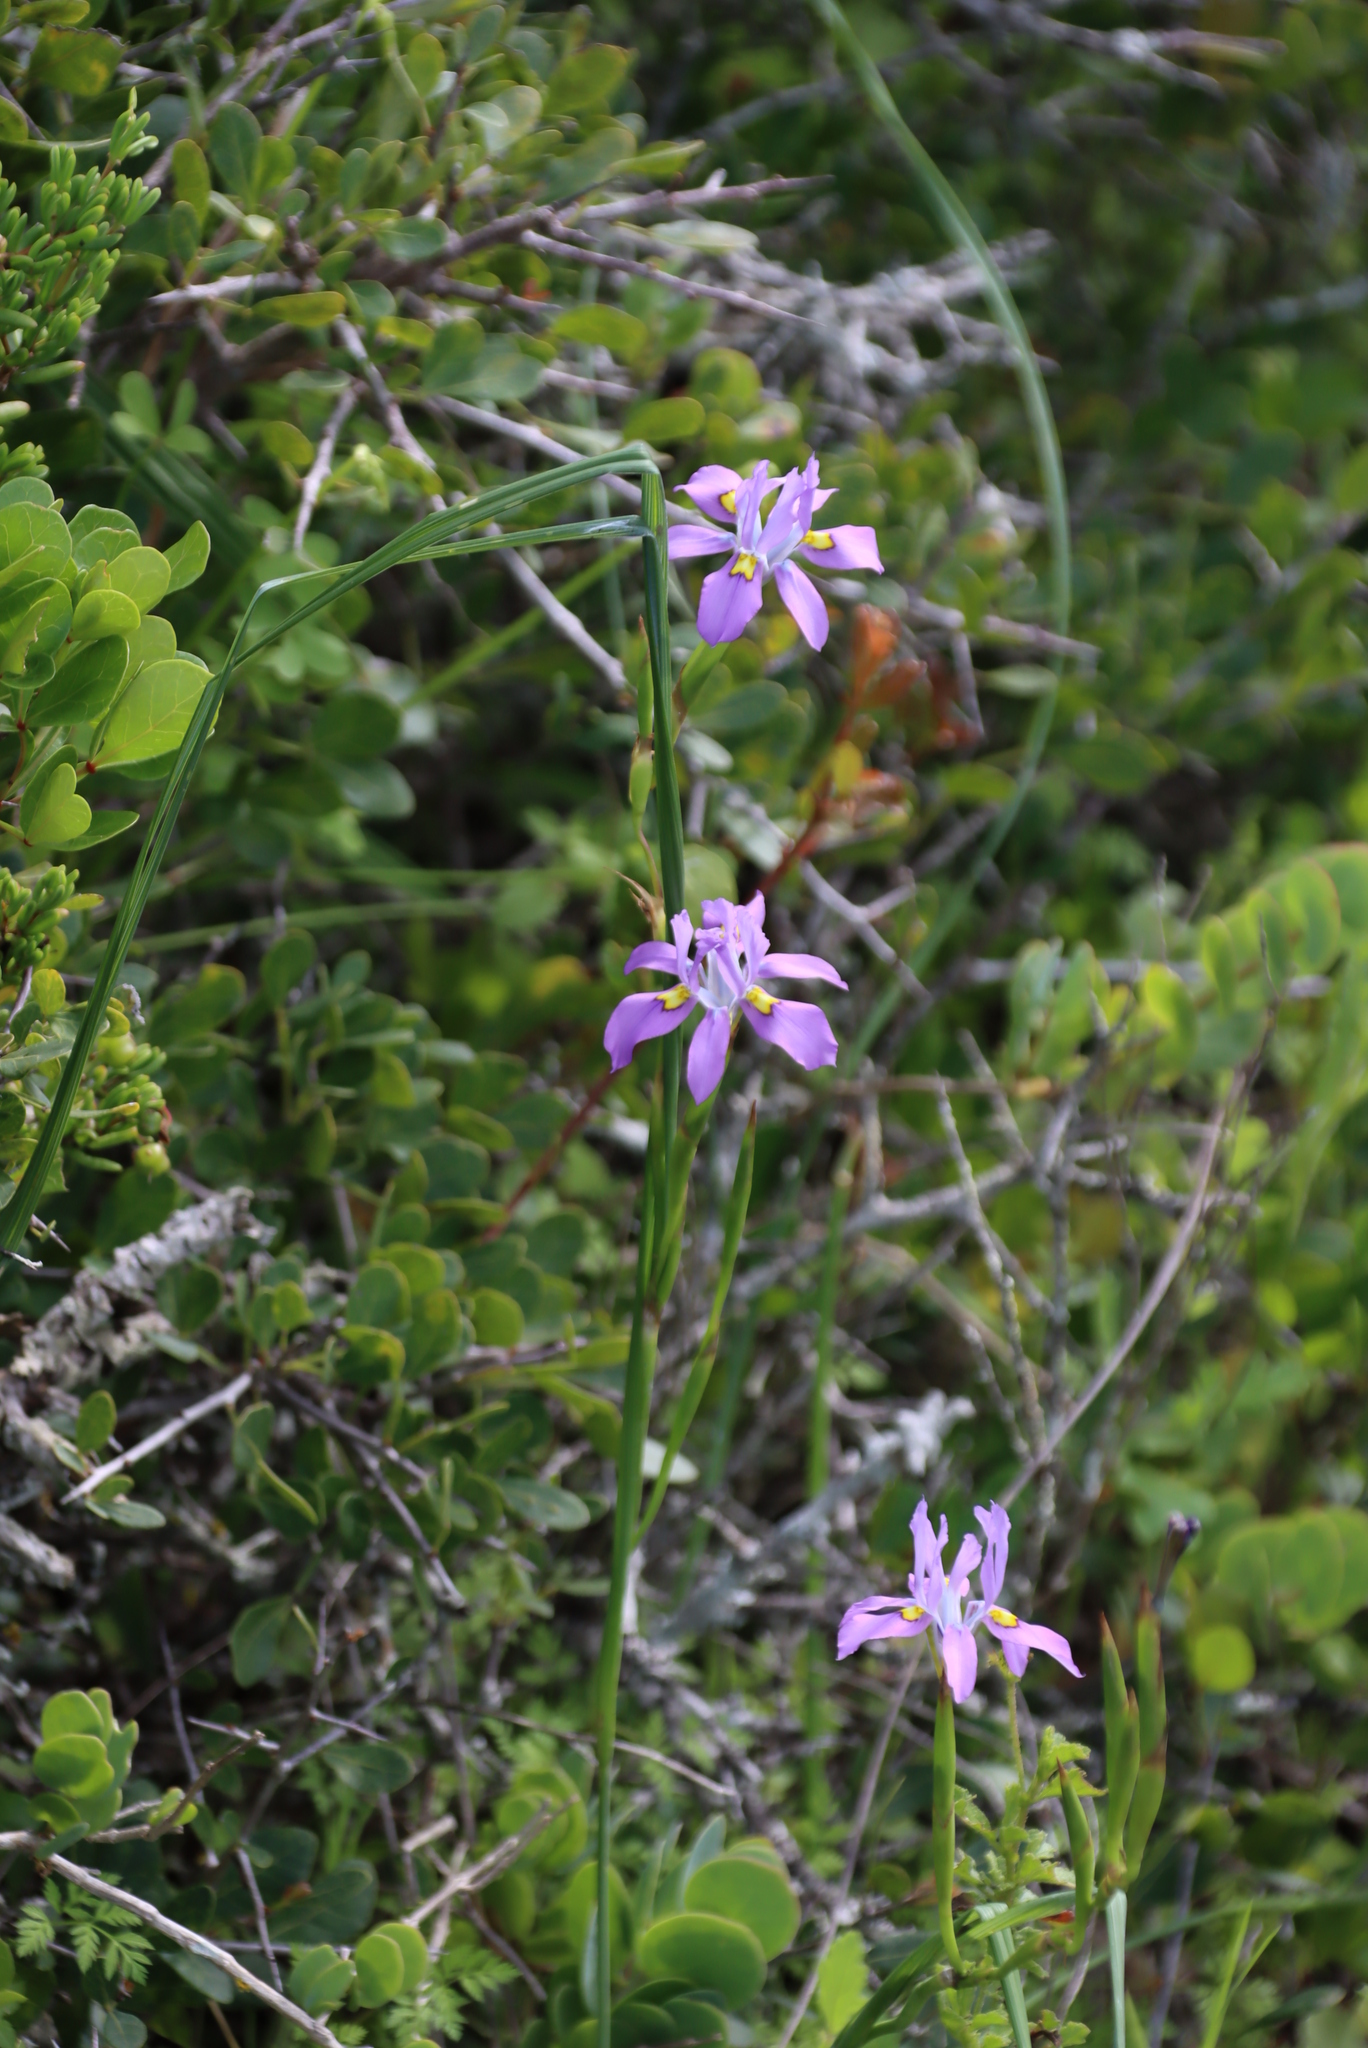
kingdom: Plantae
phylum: Tracheophyta
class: Liliopsida
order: Asparagales
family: Iridaceae
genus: Moraea
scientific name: Moraea fugax
